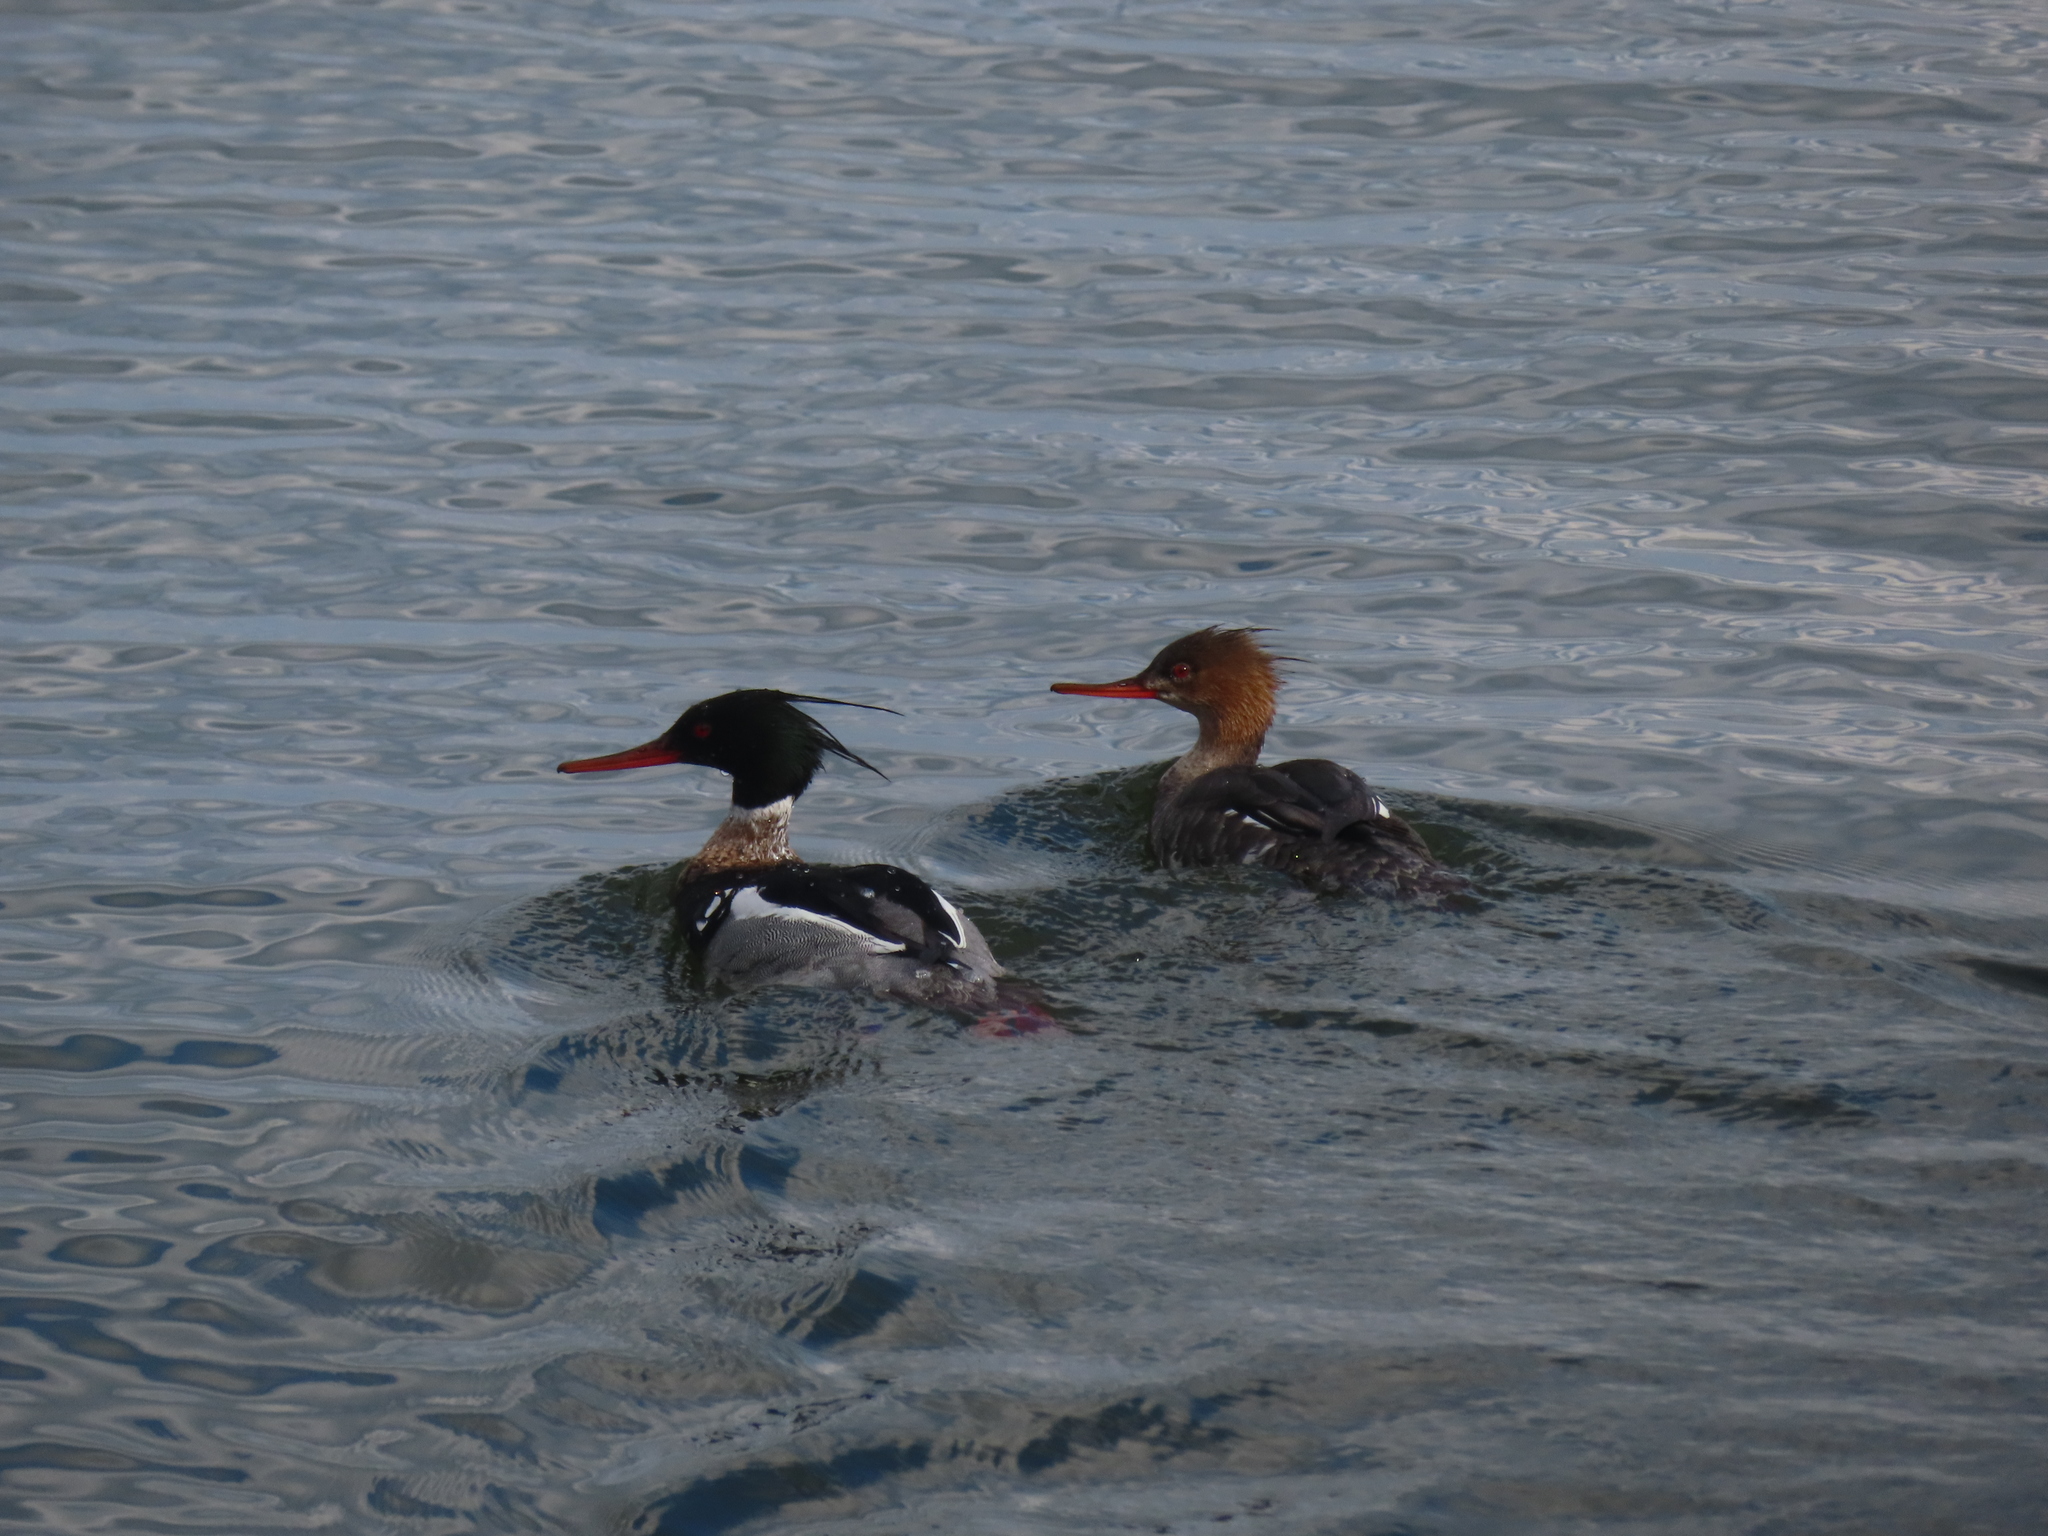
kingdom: Animalia
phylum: Chordata
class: Aves
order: Anseriformes
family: Anatidae
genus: Mergus
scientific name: Mergus serrator
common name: Red-breasted merganser
